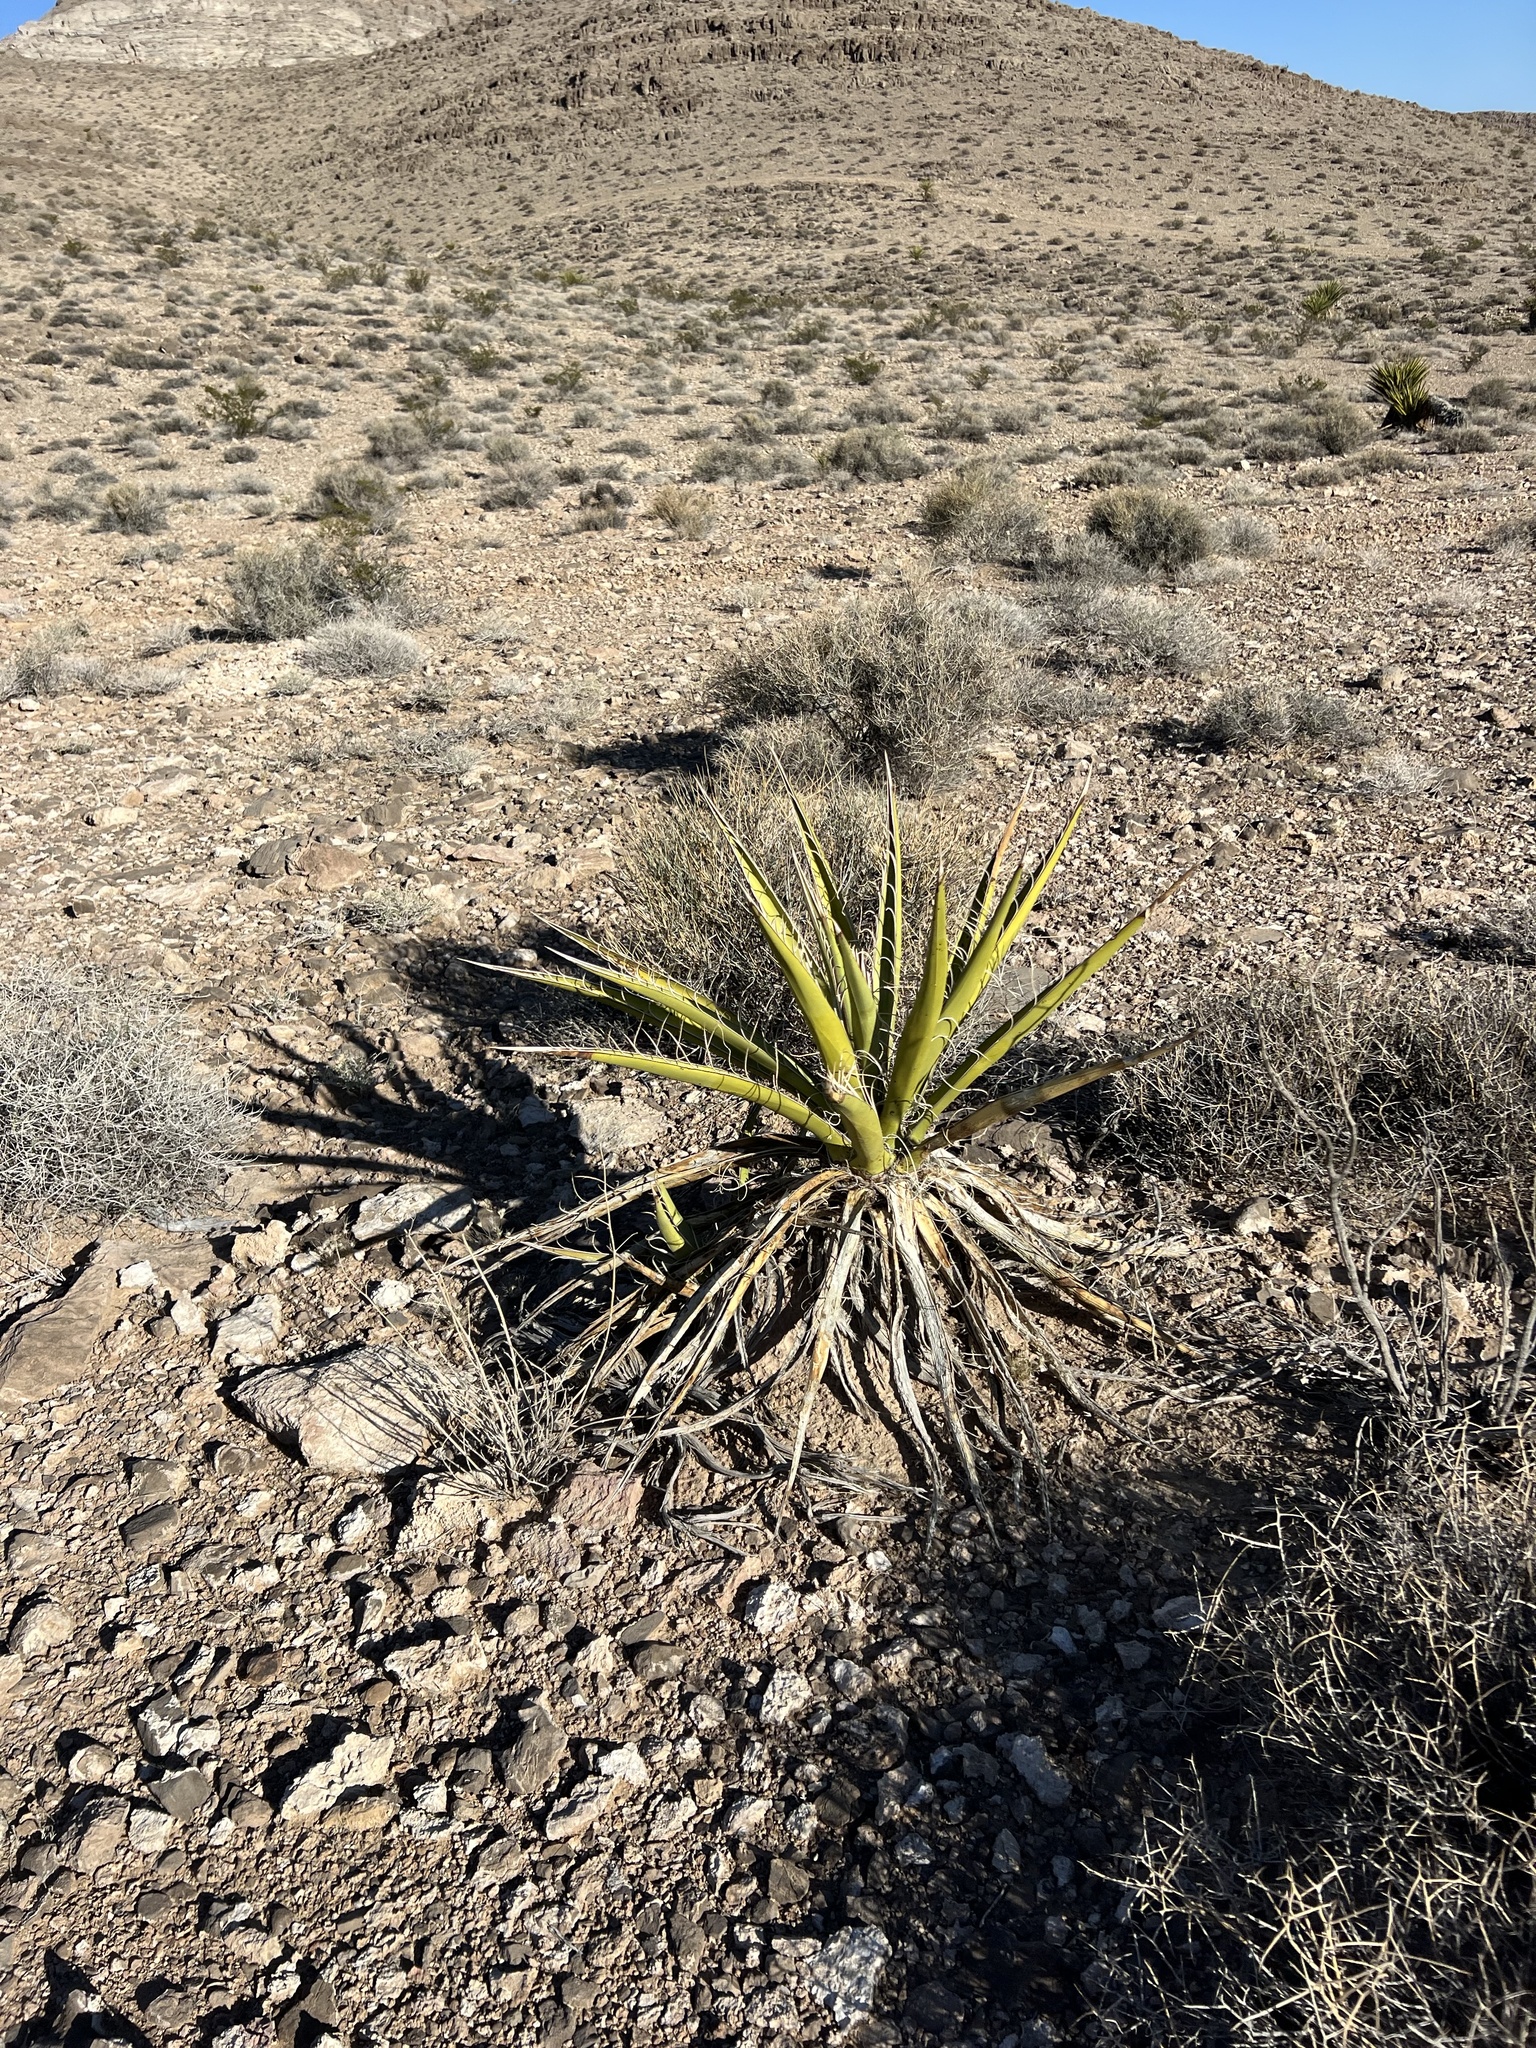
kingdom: Plantae
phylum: Tracheophyta
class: Liliopsida
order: Asparagales
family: Asparagaceae
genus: Yucca
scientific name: Yucca schidigera
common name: Mojave yucca
